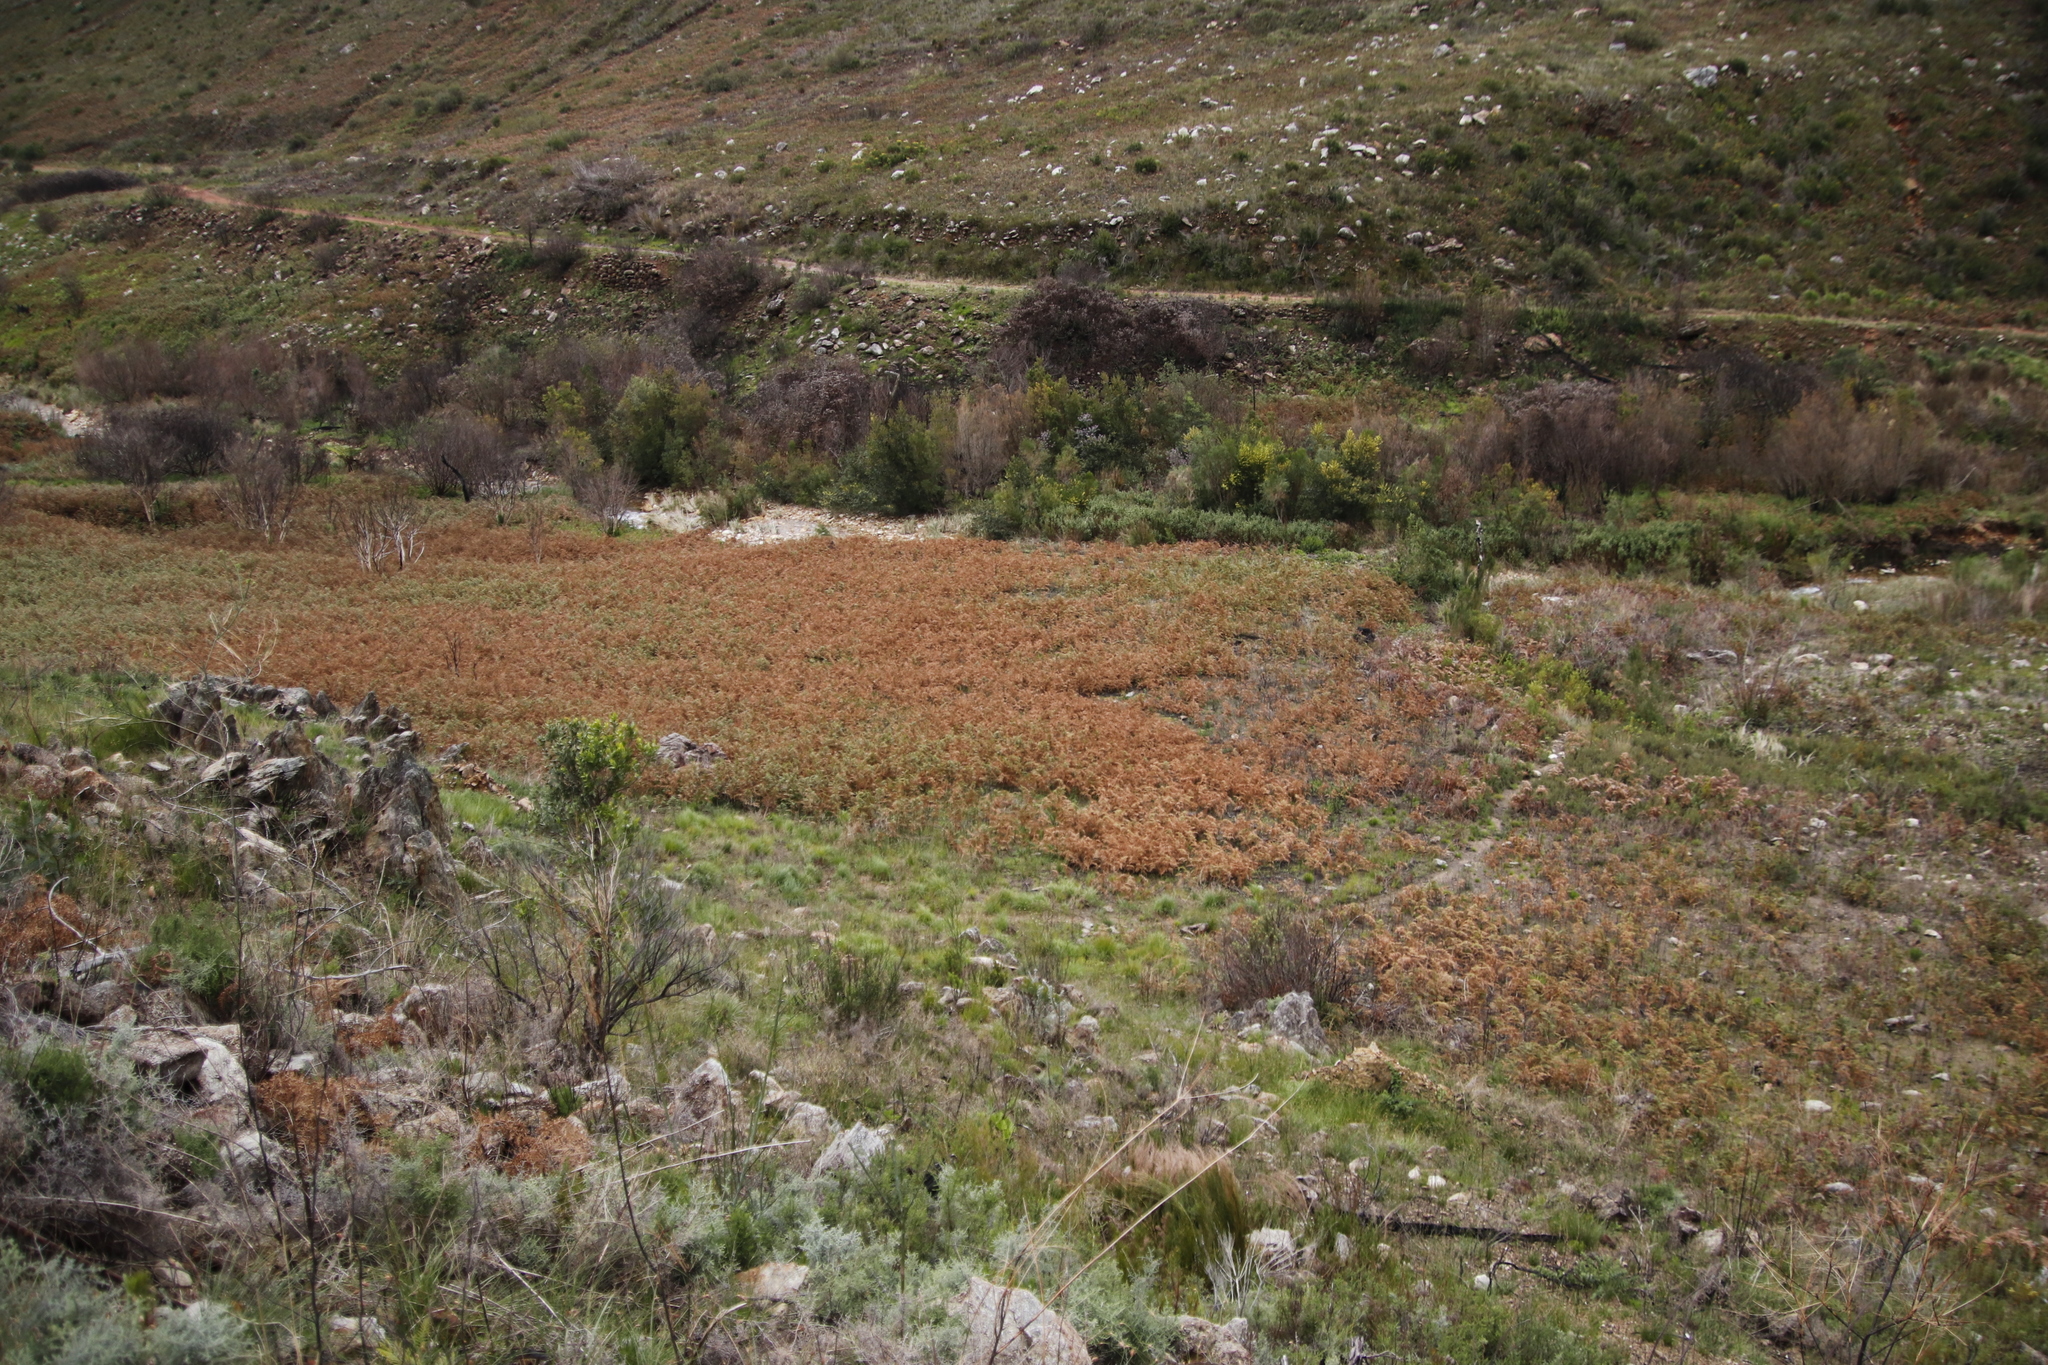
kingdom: Plantae
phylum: Tracheophyta
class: Polypodiopsida
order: Polypodiales
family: Dennstaedtiaceae
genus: Pteridium
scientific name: Pteridium aquilinum
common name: Bracken
